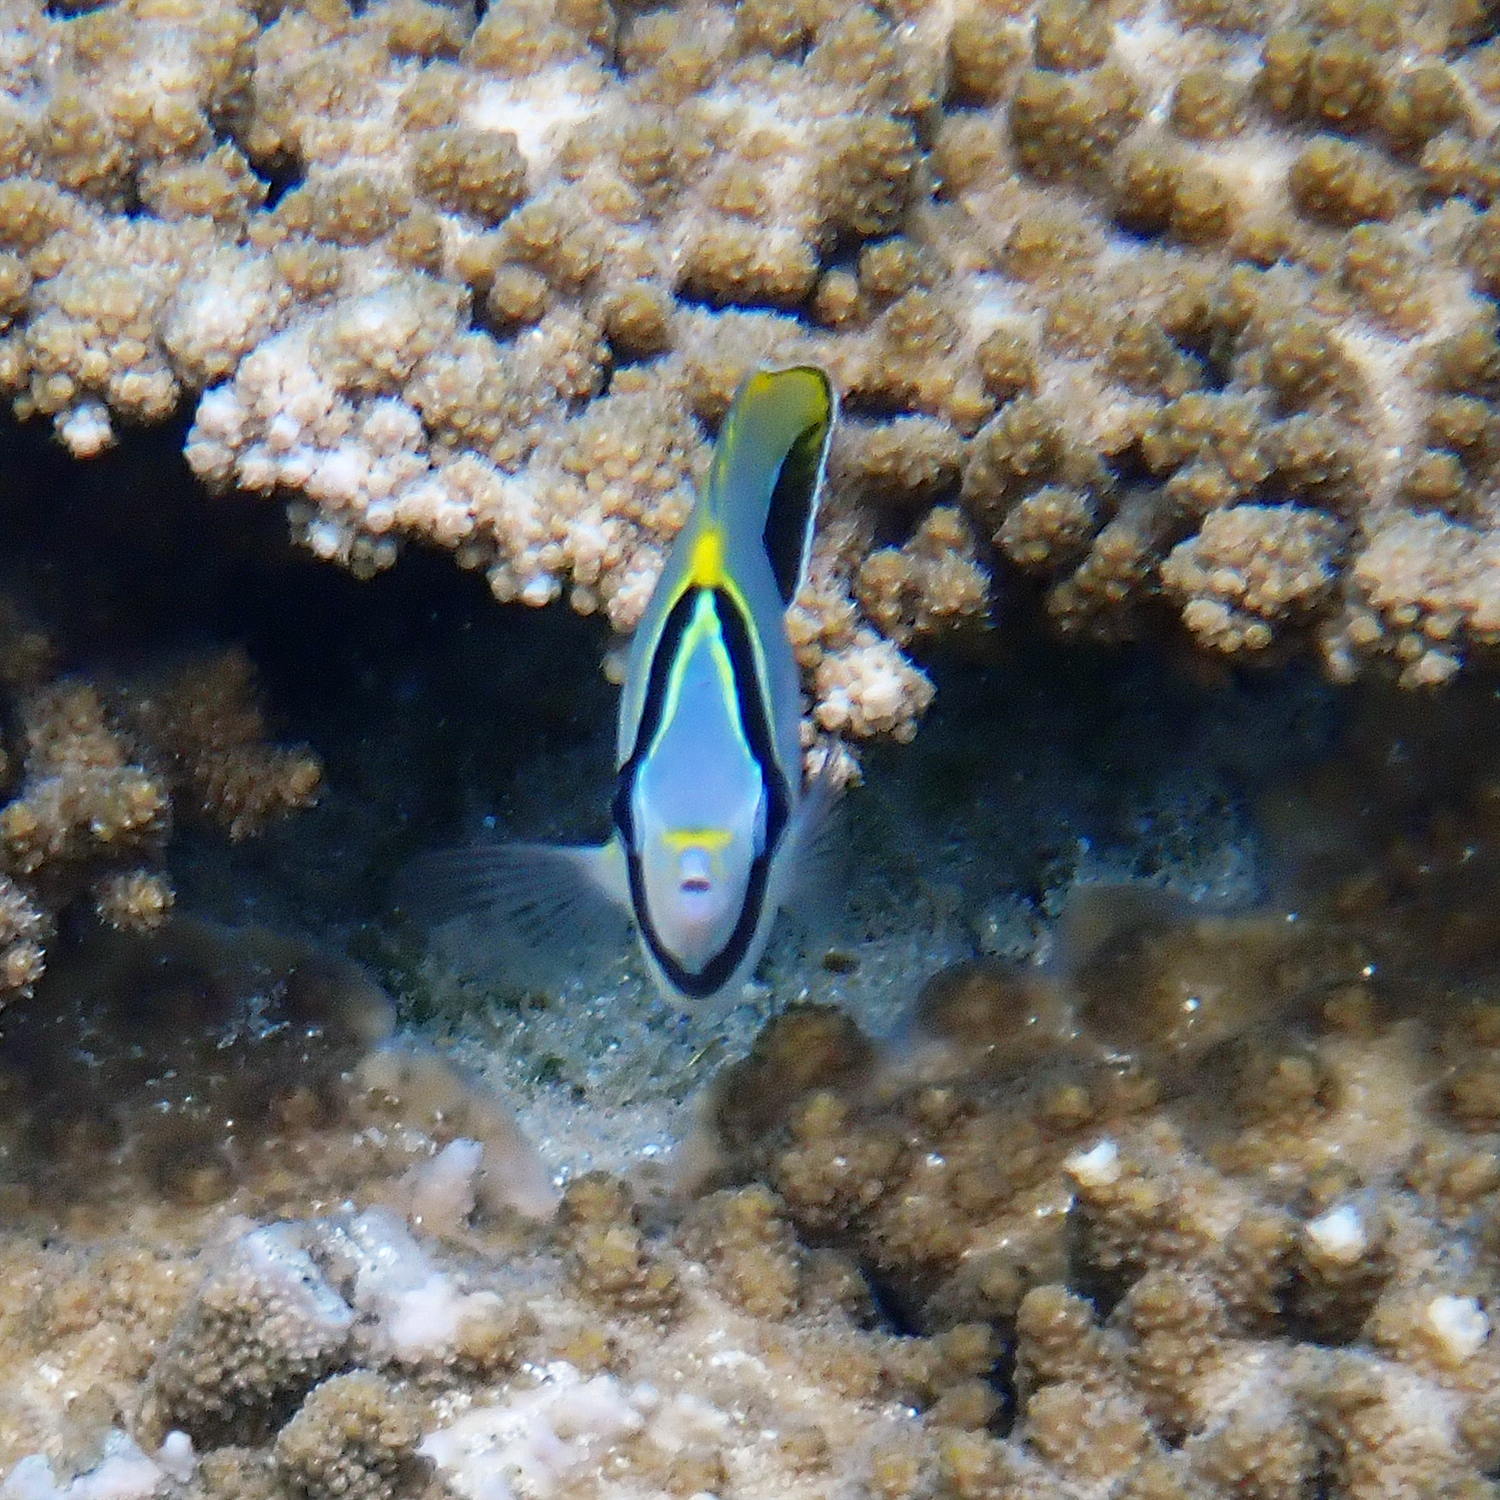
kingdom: Animalia
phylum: Chordata
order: Perciformes
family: Chaetodontidae
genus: Chaetodon
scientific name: Chaetodon trifascialis
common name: Chevroned butterflyfish
